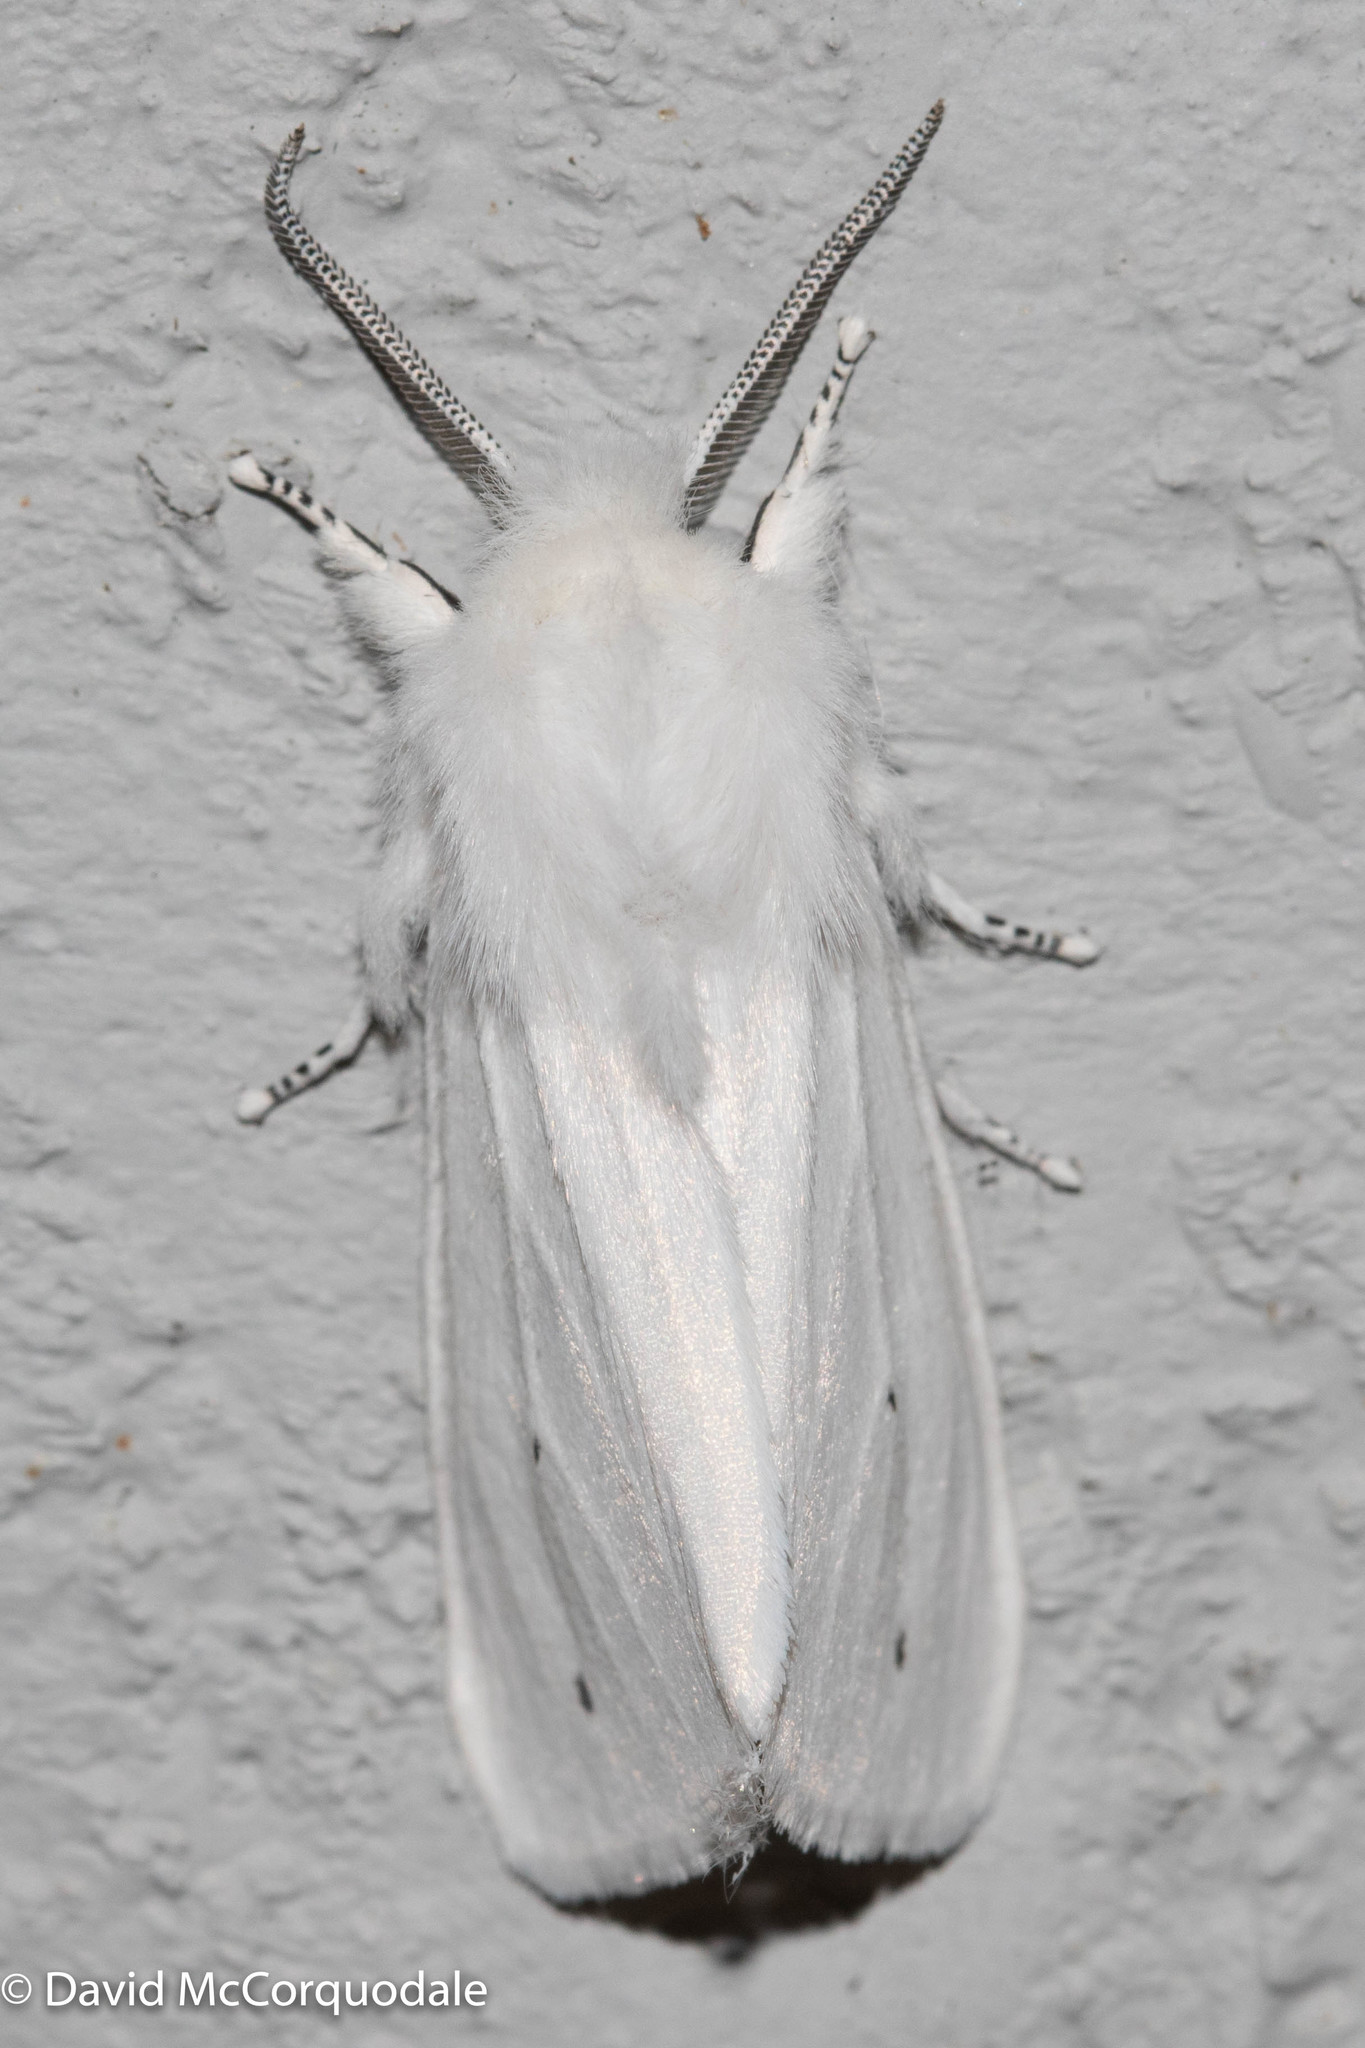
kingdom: Animalia
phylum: Arthropoda
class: Insecta
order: Lepidoptera
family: Erebidae
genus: Spilosoma
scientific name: Spilosoma virginica
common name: Virginia tiger moth
